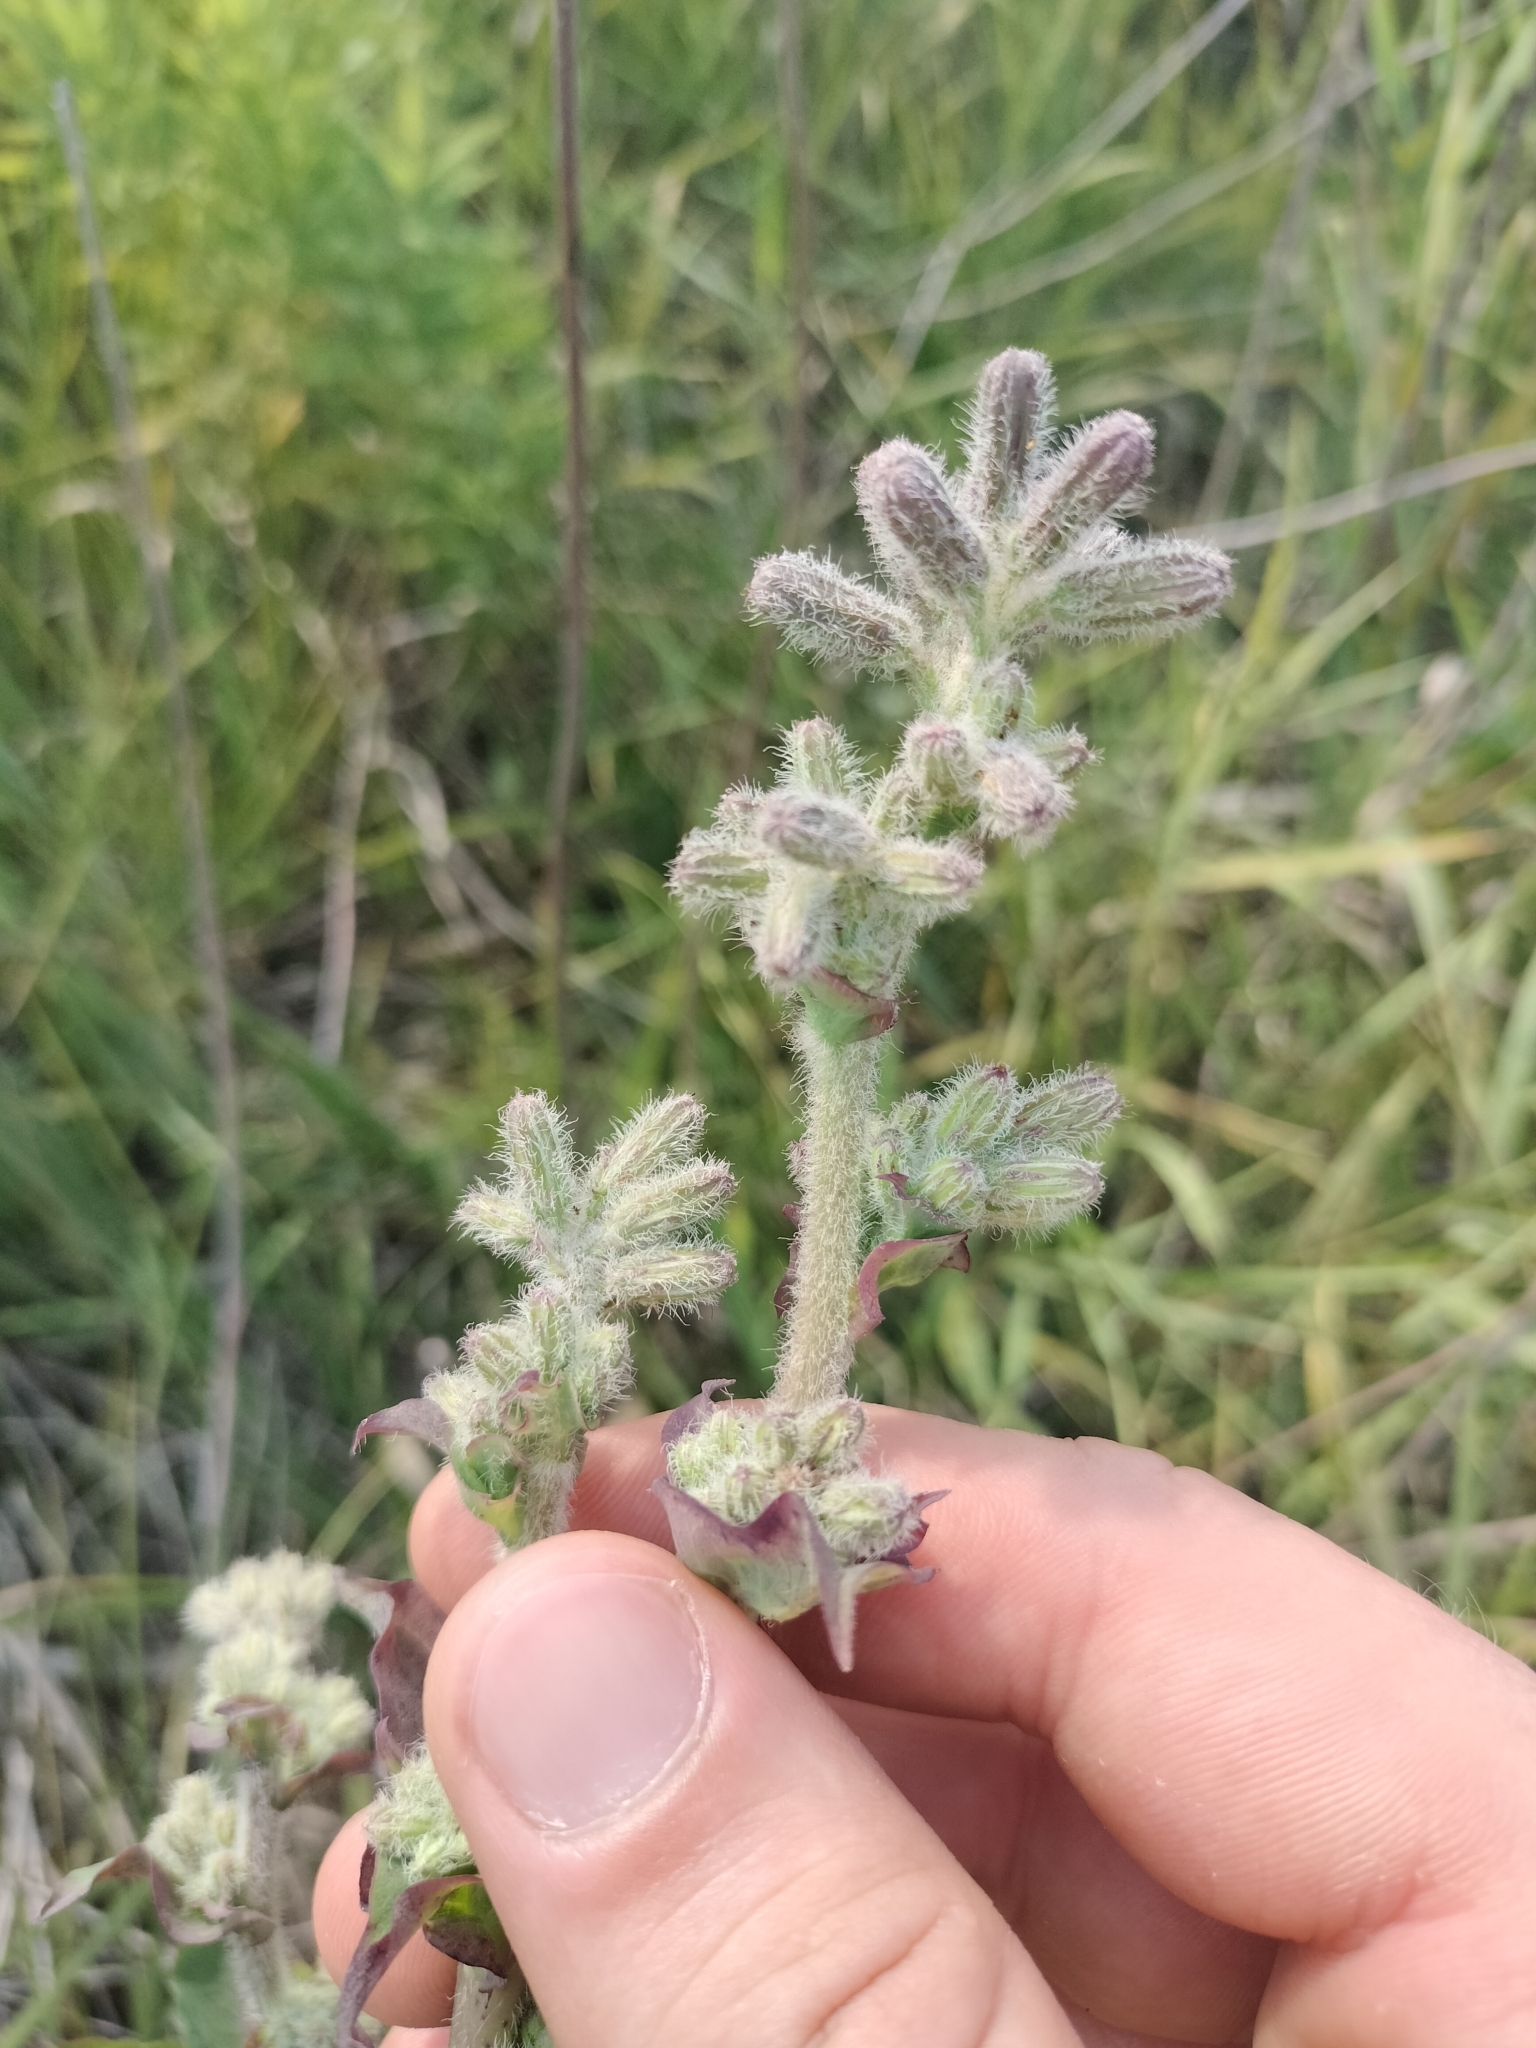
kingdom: Plantae
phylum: Tracheophyta
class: Magnoliopsida
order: Asterales
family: Asteraceae
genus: Nabalus
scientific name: Nabalus racemosus
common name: Glaucous white lettuce
